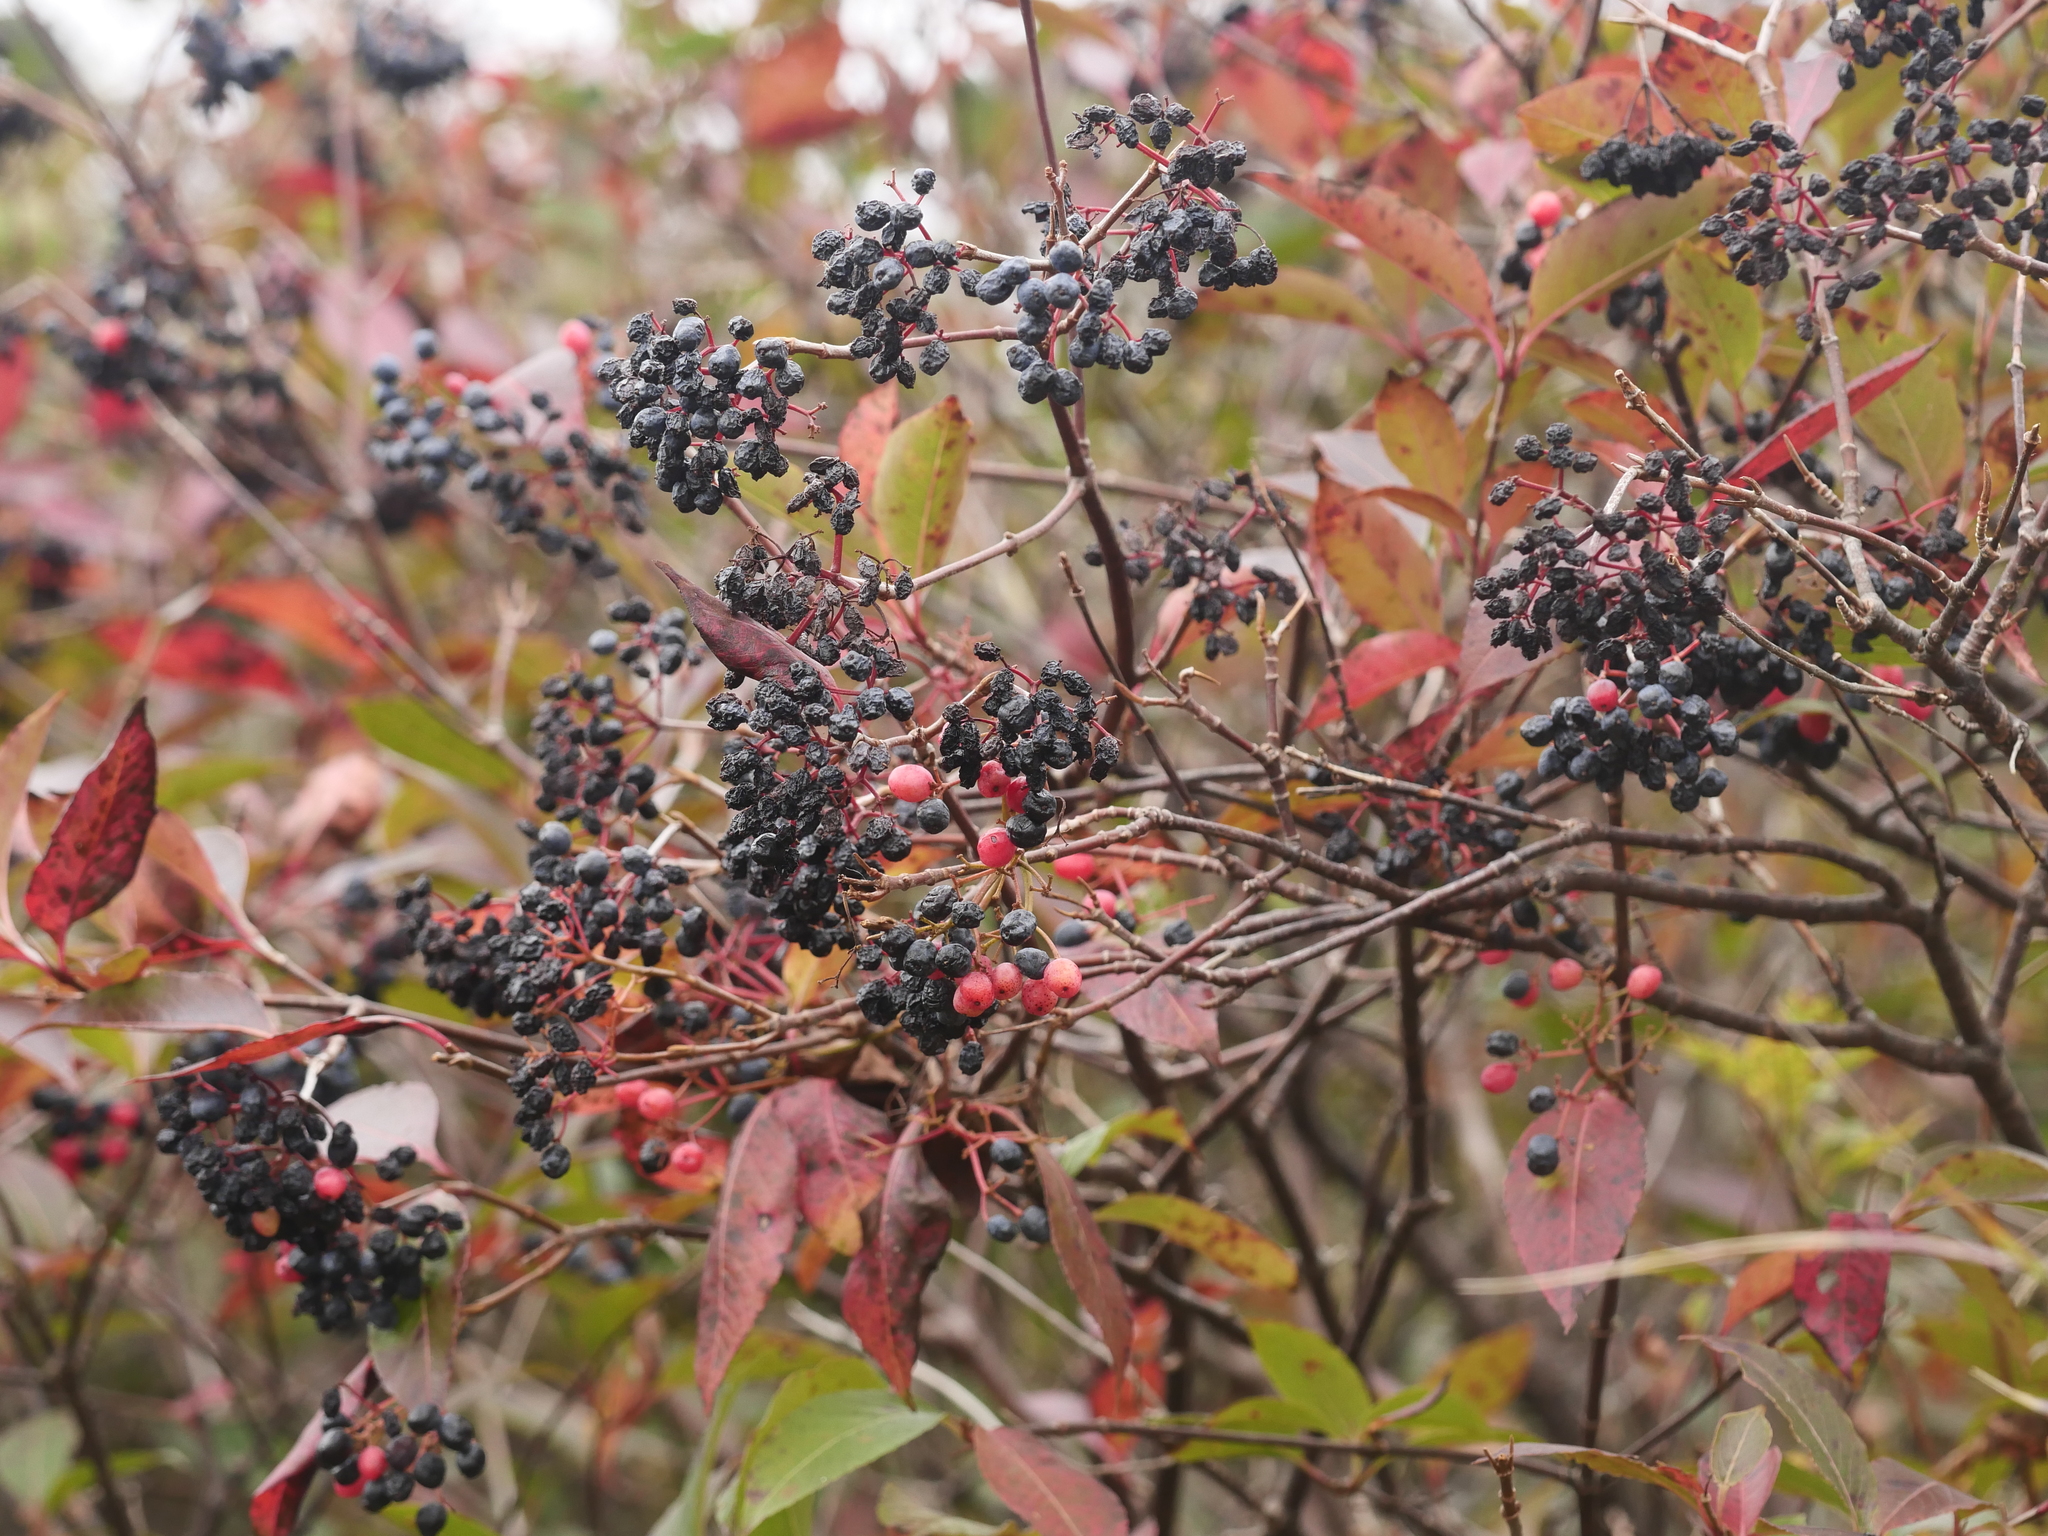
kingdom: Plantae
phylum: Tracheophyta
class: Magnoliopsida
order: Dipsacales
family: Viburnaceae
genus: Viburnum
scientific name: Viburnum cassinoides
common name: Swamp haw
